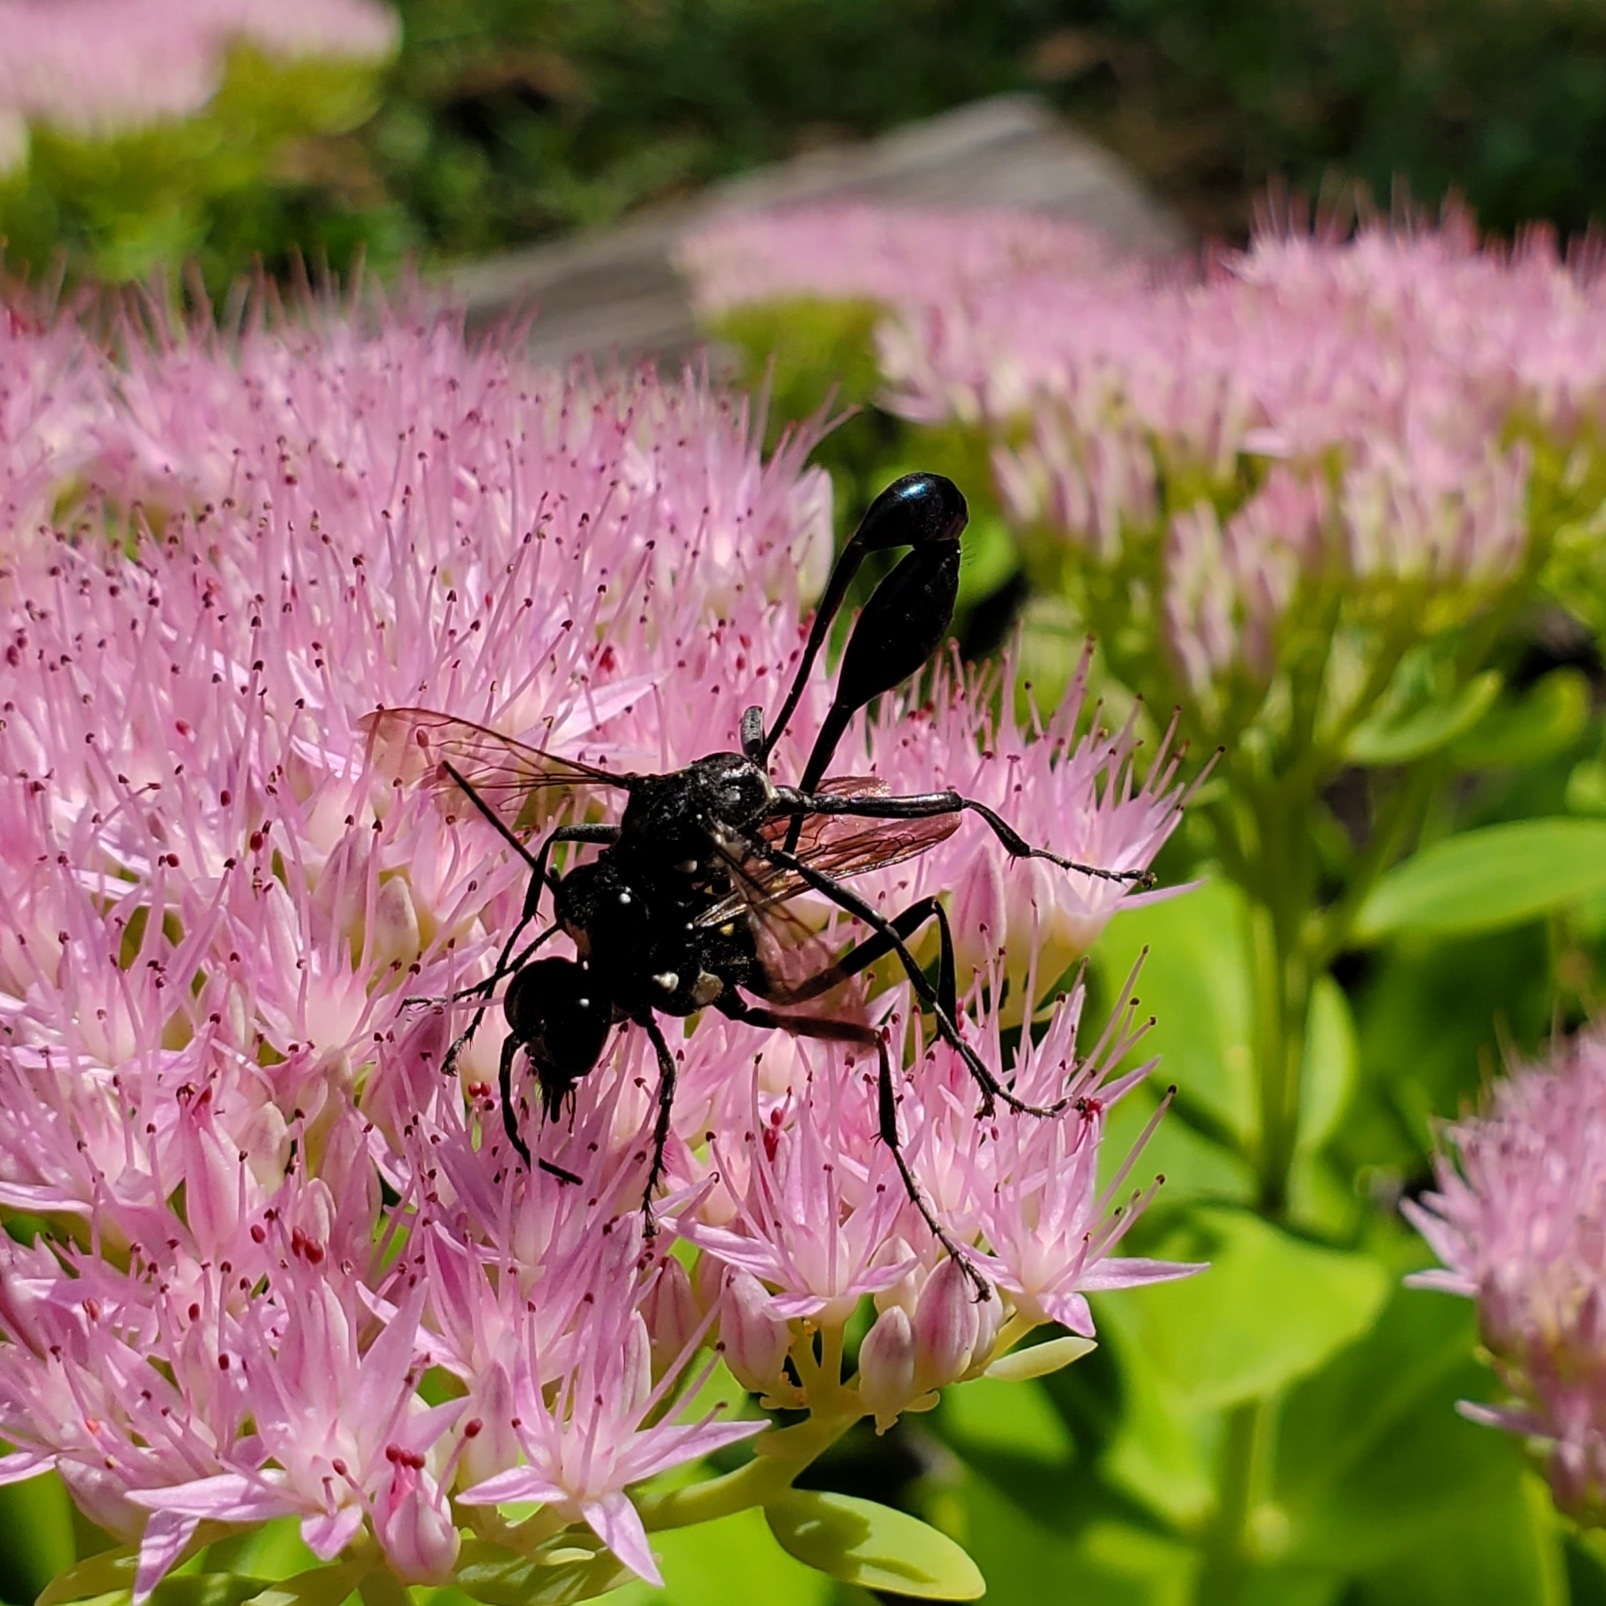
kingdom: Animalia
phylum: Arthropoda
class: Insecta
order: Hymenoptera
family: Sphecidae
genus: Eremnophila
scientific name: Eremnophila aureonotata
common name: Gold-marked thread-waisted wasp
